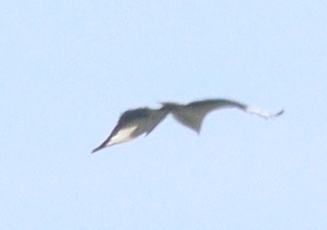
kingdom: Animalia
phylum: Chordata
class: Aves
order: Accipitriformes
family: Accipitridae
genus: Gypohierax
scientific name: Gypohierax angolensis
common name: Palm-nut vulture
